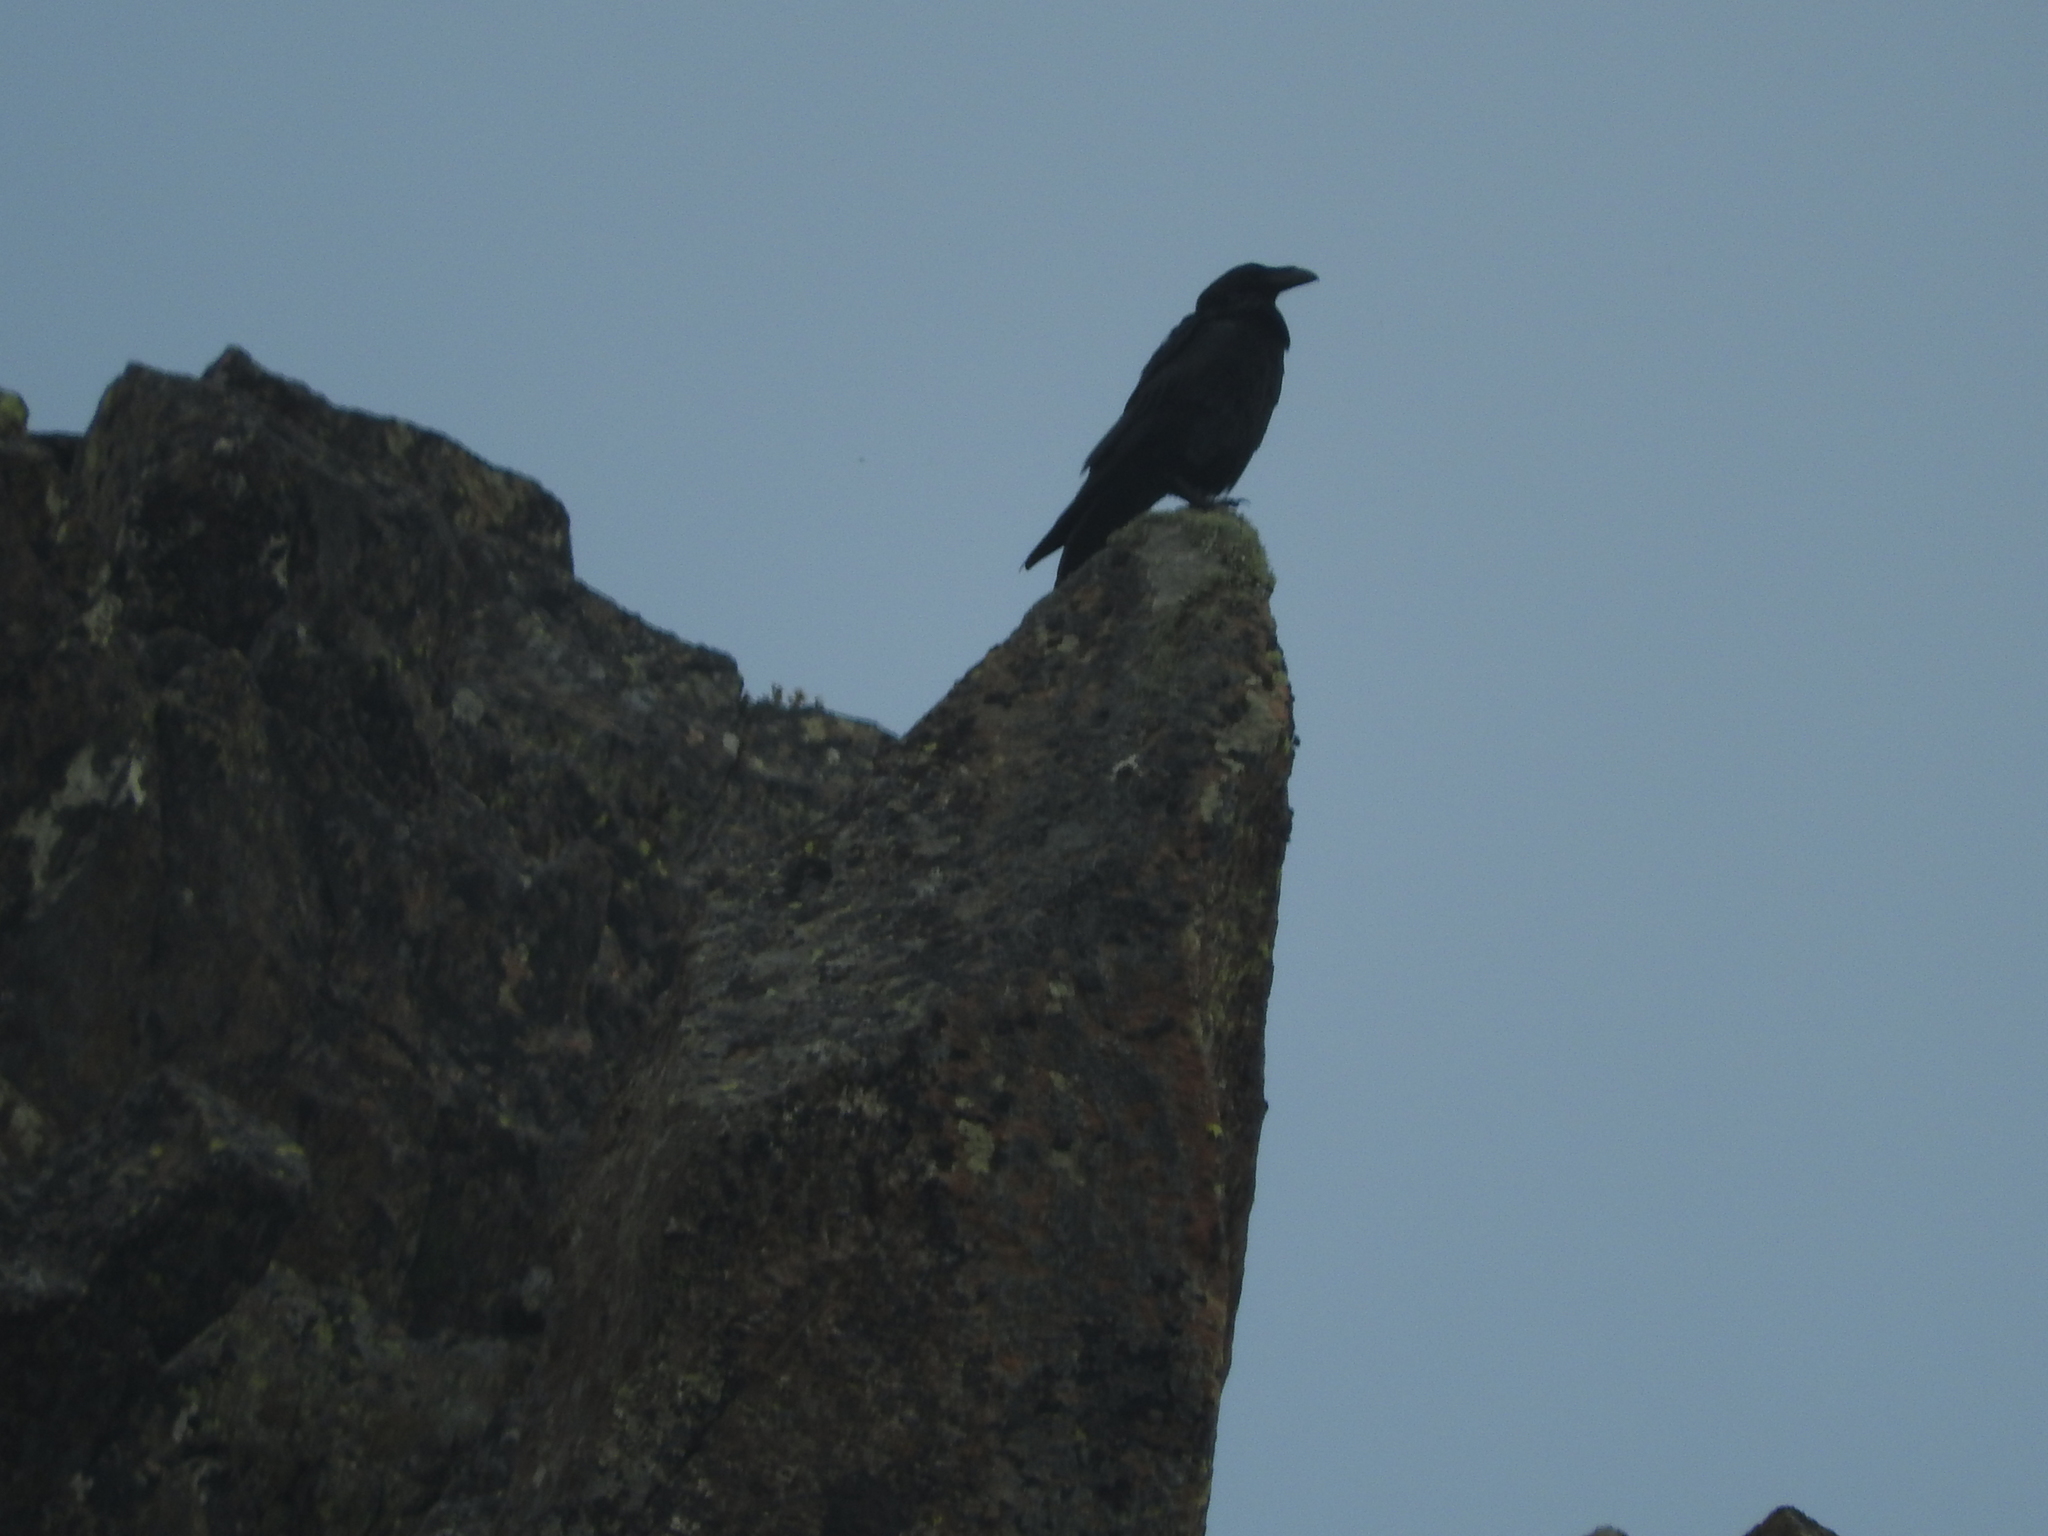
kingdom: Animalia
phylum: Chordata
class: Aves
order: Passeriformes
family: Corvidae
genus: Corvus
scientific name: Corvus corax
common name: Common raven
